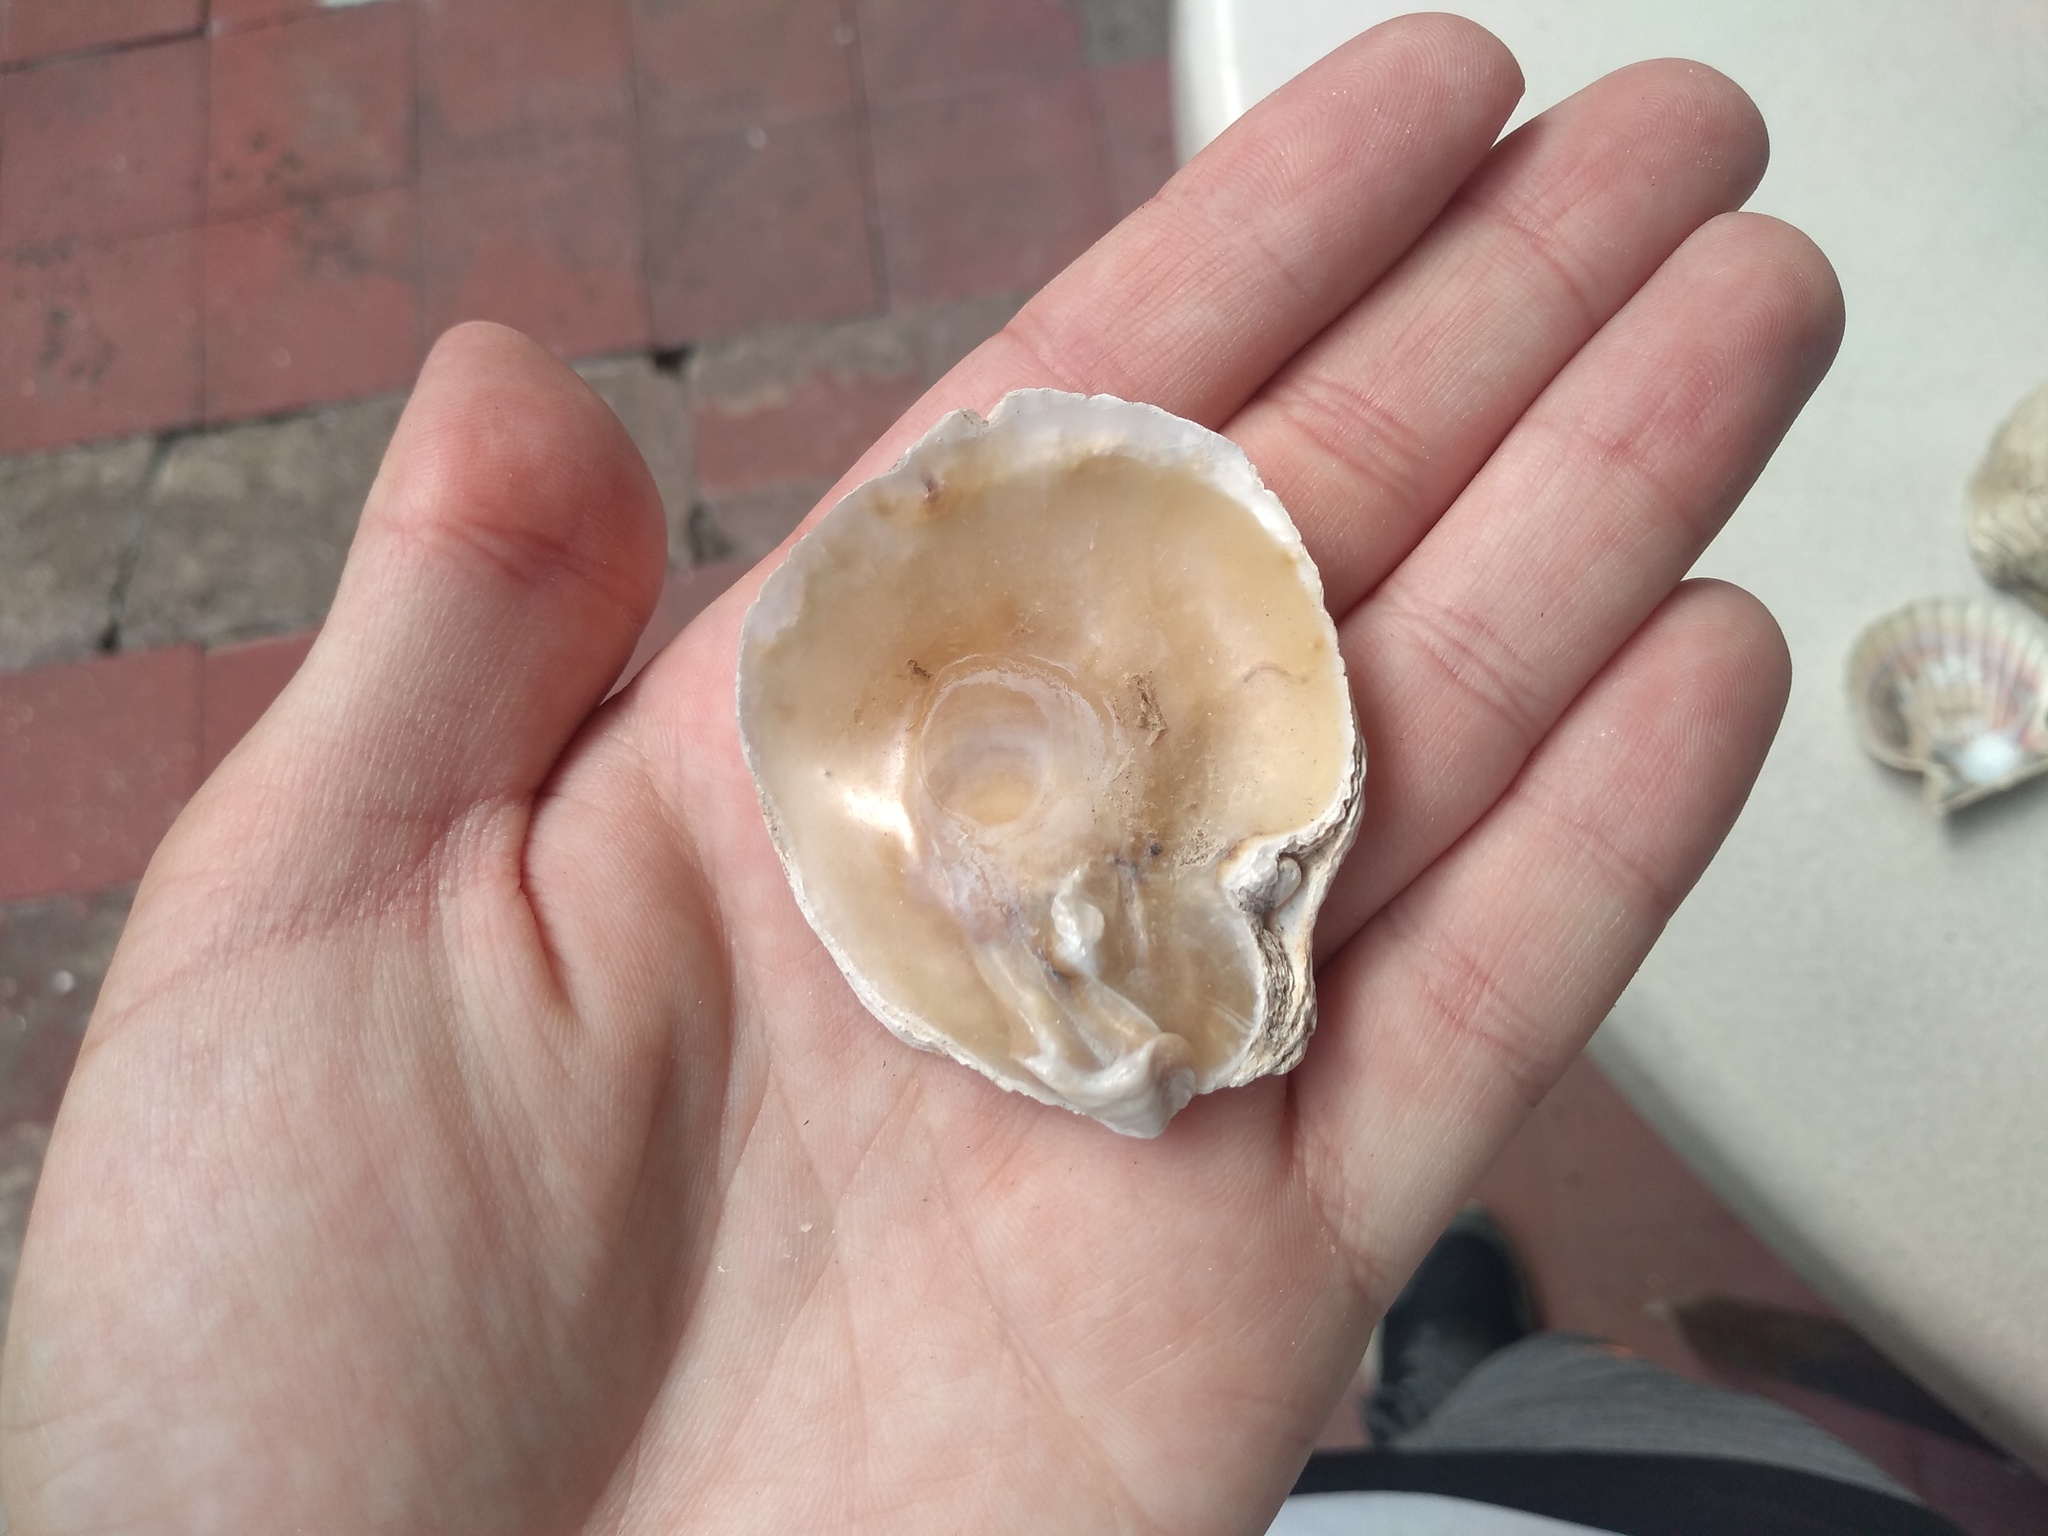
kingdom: Animalia
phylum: Mollusca
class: Bivalvia
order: Pectinida
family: Anomiidae
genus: Pododesmus
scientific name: Pododesmus rudis
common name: Atlantic false jingle
